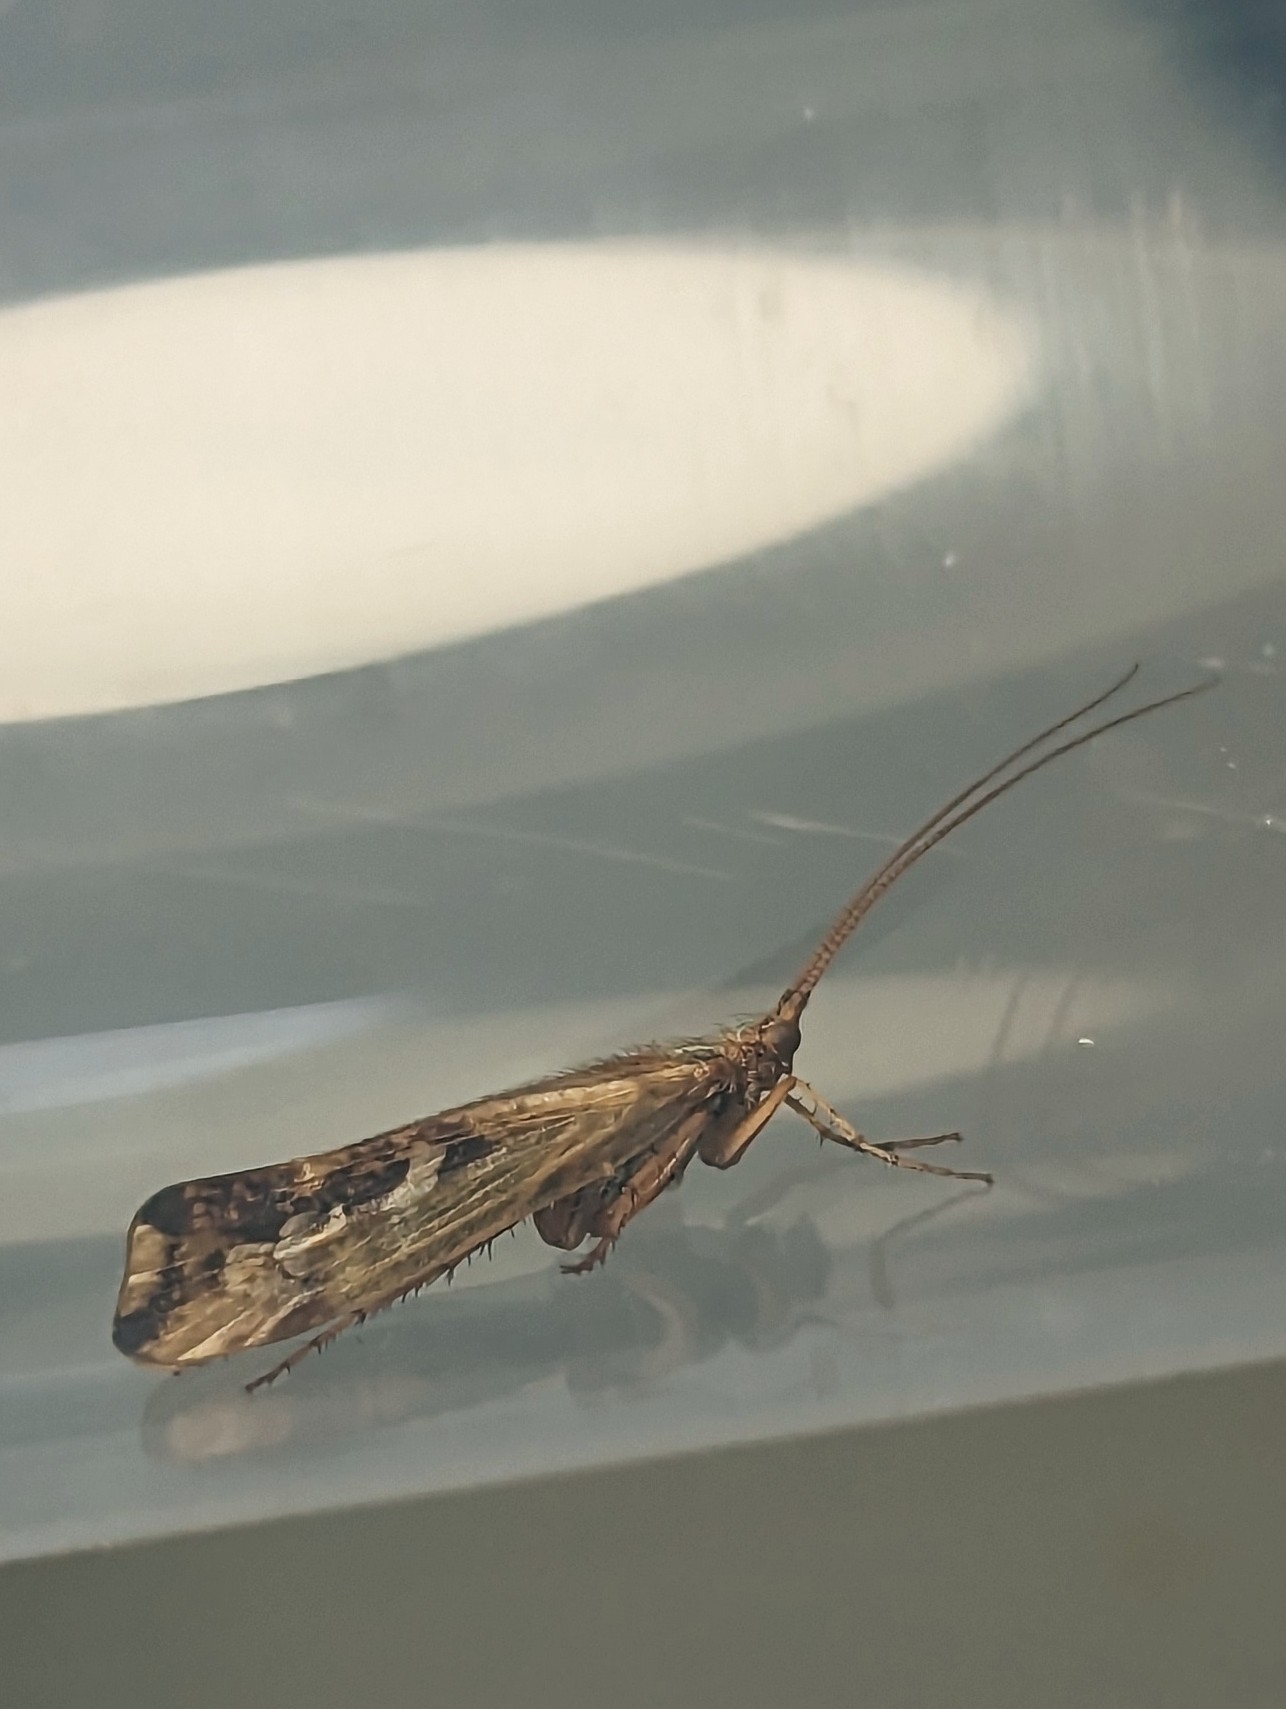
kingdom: Animalia
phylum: Arthropoda
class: Insecta
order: Trichoptera
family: Limnephilidae
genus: Limnephilus
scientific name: Limnephilus lunatus
